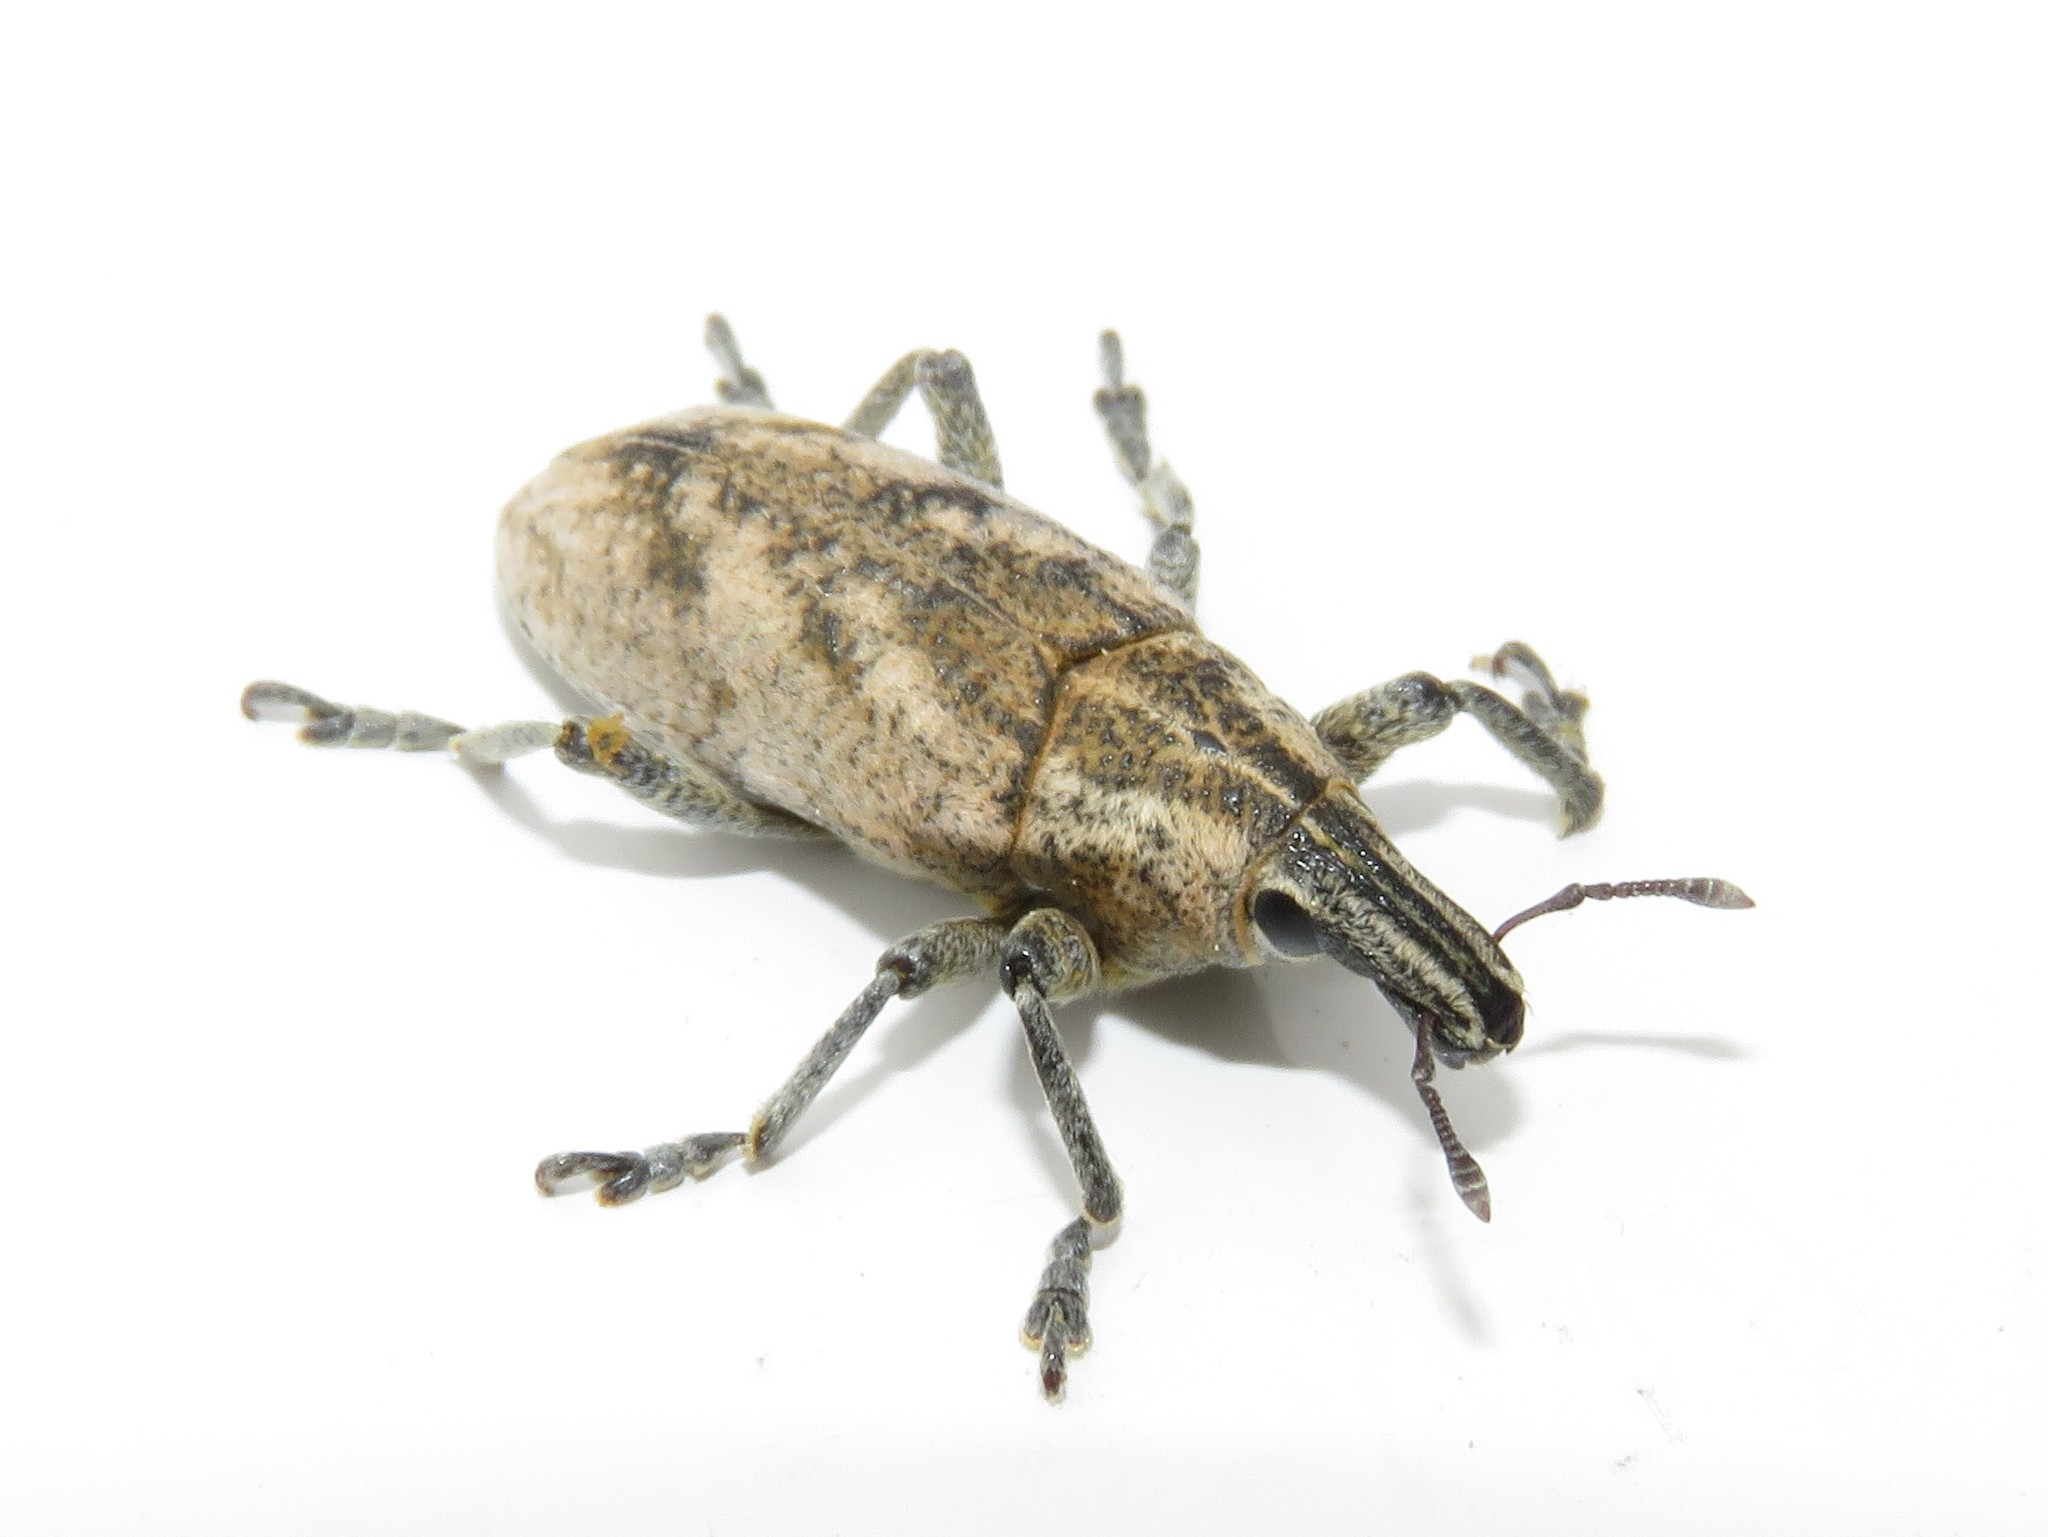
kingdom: Animalia
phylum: Arthropoda
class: Insecta
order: Coleoptera
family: Curculionidae
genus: Cleonis
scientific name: Cleonis pigra
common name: Large thistle weevil
